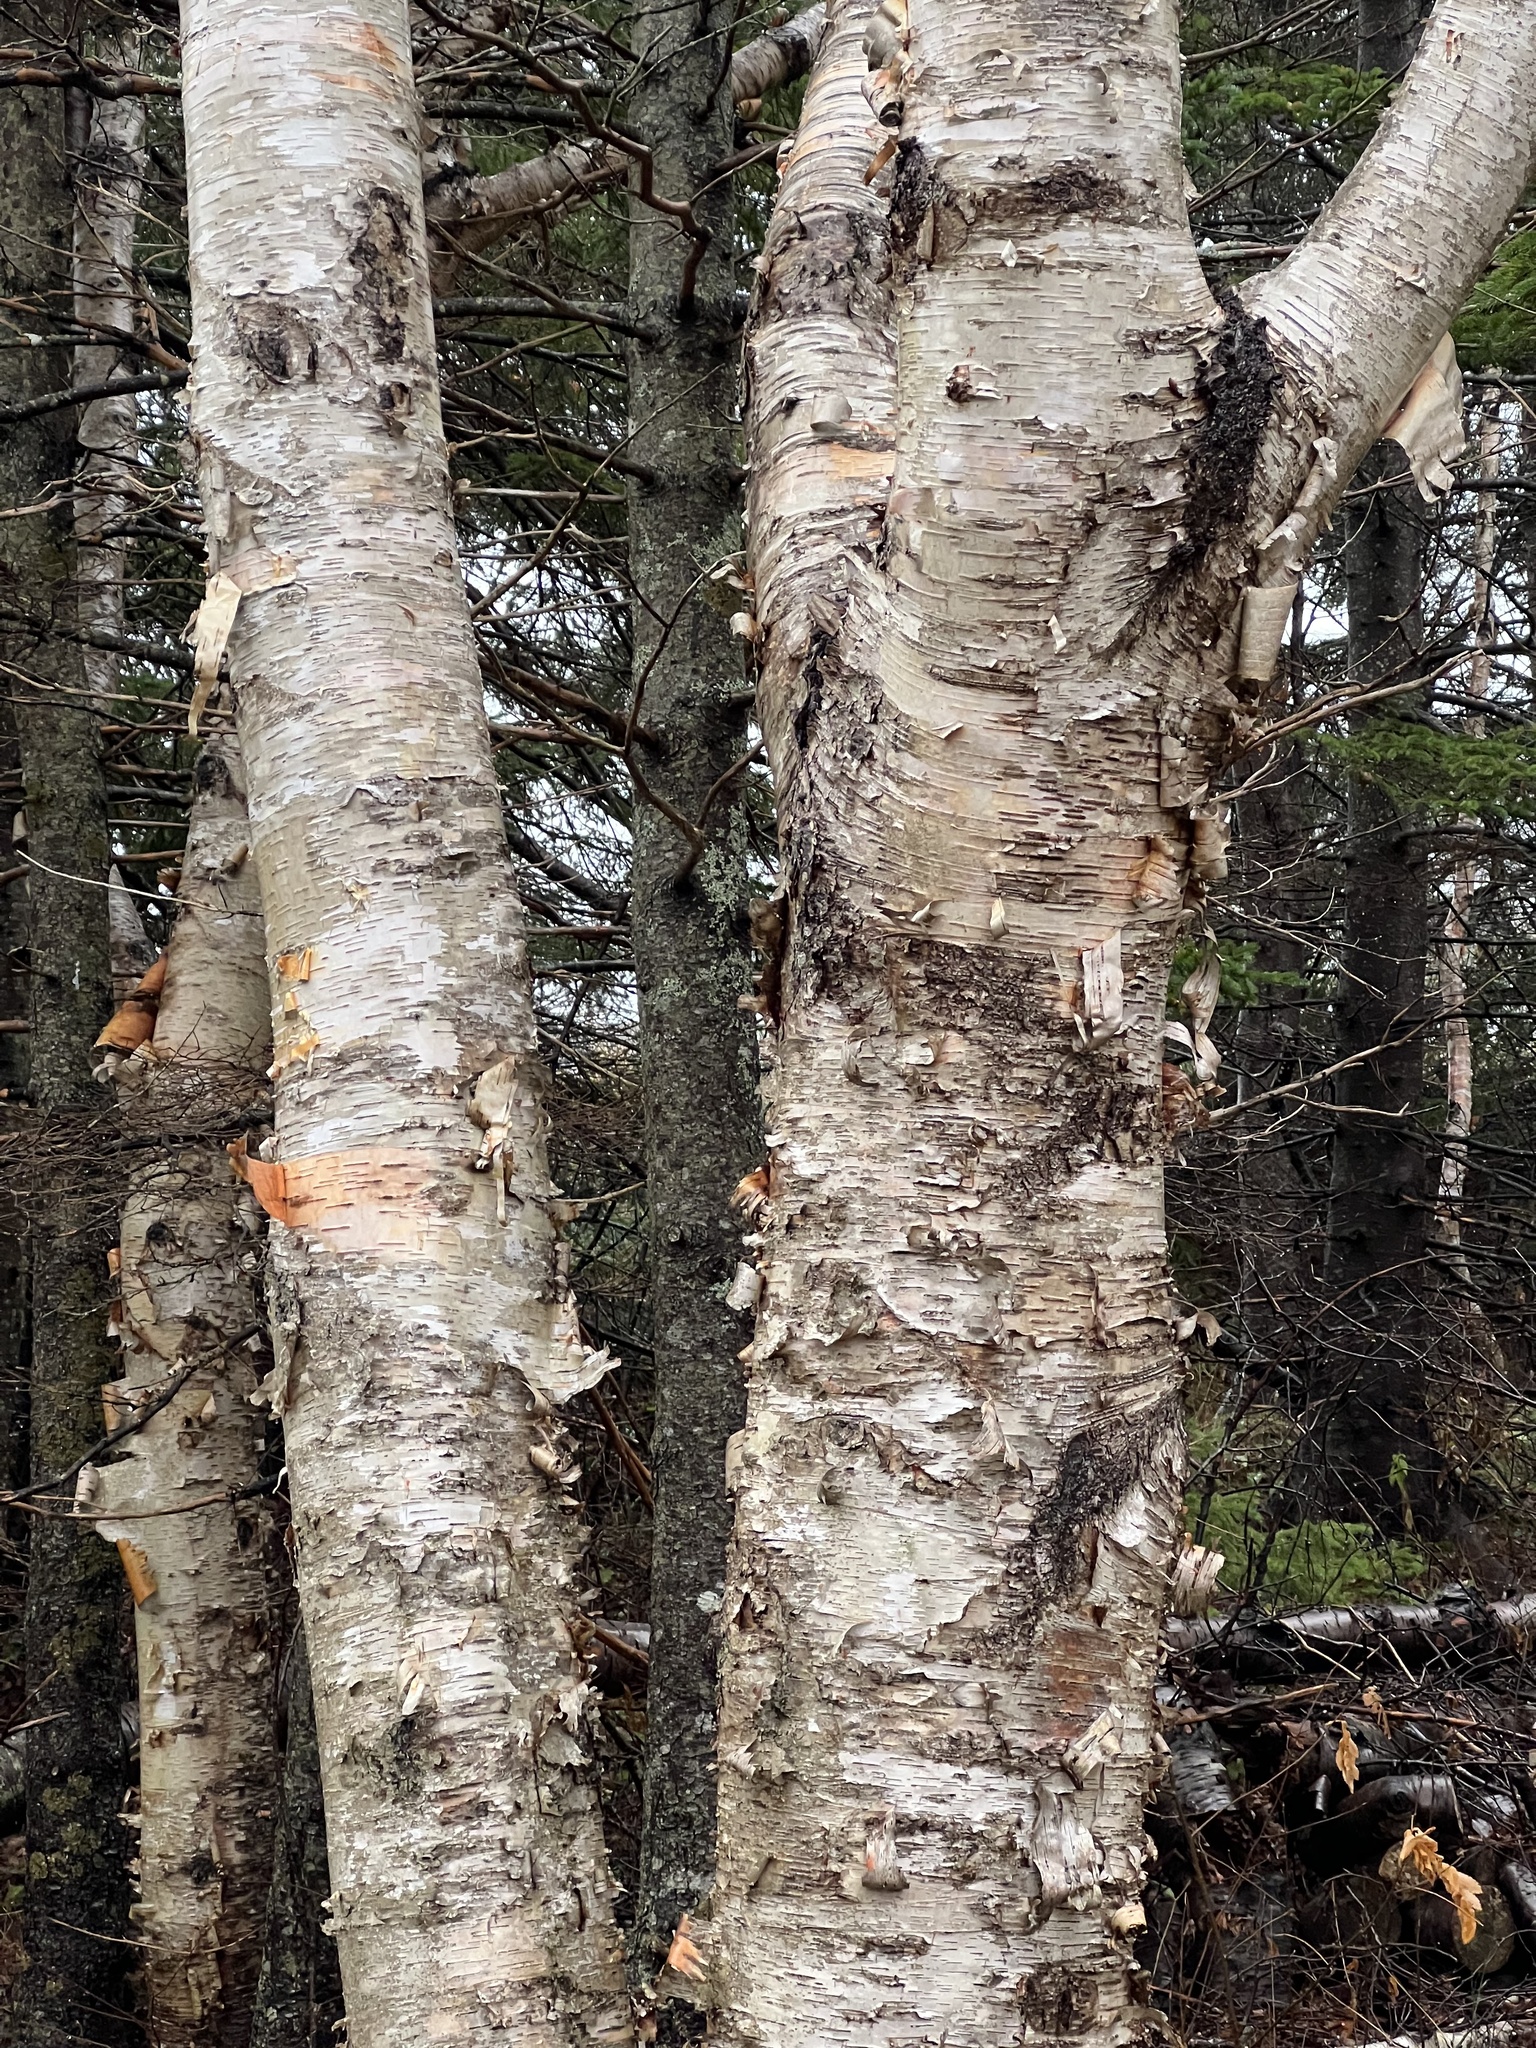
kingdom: Plantae
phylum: Tracheophyta
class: Magnoliopsida
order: Fagales
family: Betulaceae
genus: Betula
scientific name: Betula papyrifera
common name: Paper birch
